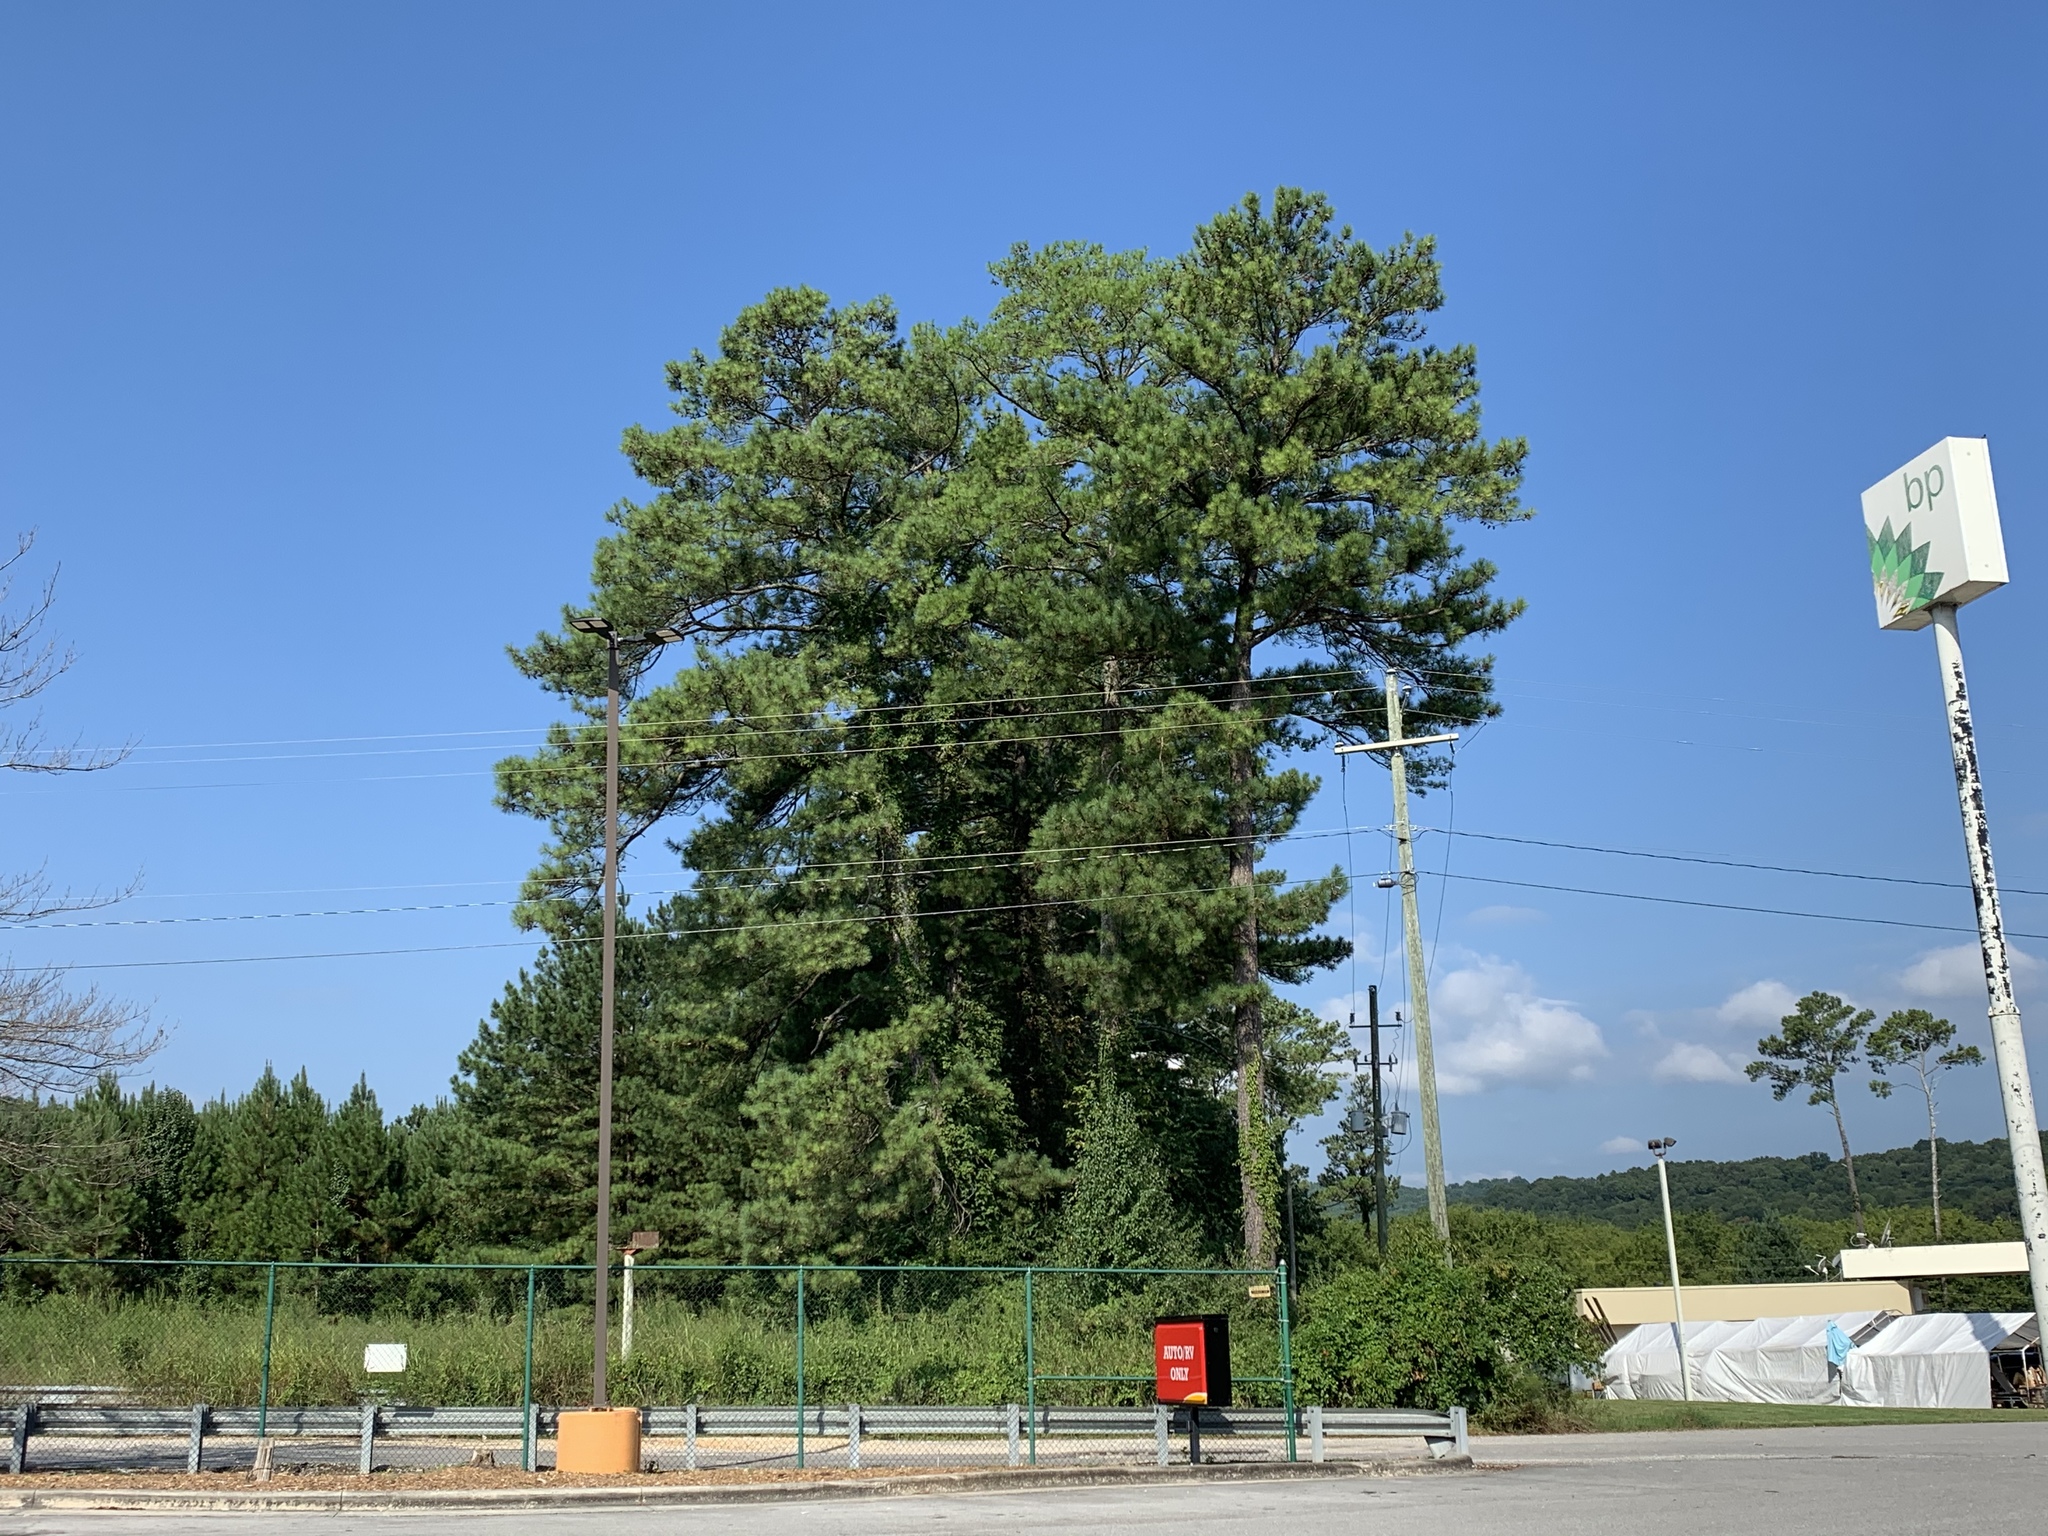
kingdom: Plantae
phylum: Tracheophyta
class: Pinopsida
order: Pinales
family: Pinaceae
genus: Pinus
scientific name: Pinus taeda
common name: Loblolly pine
